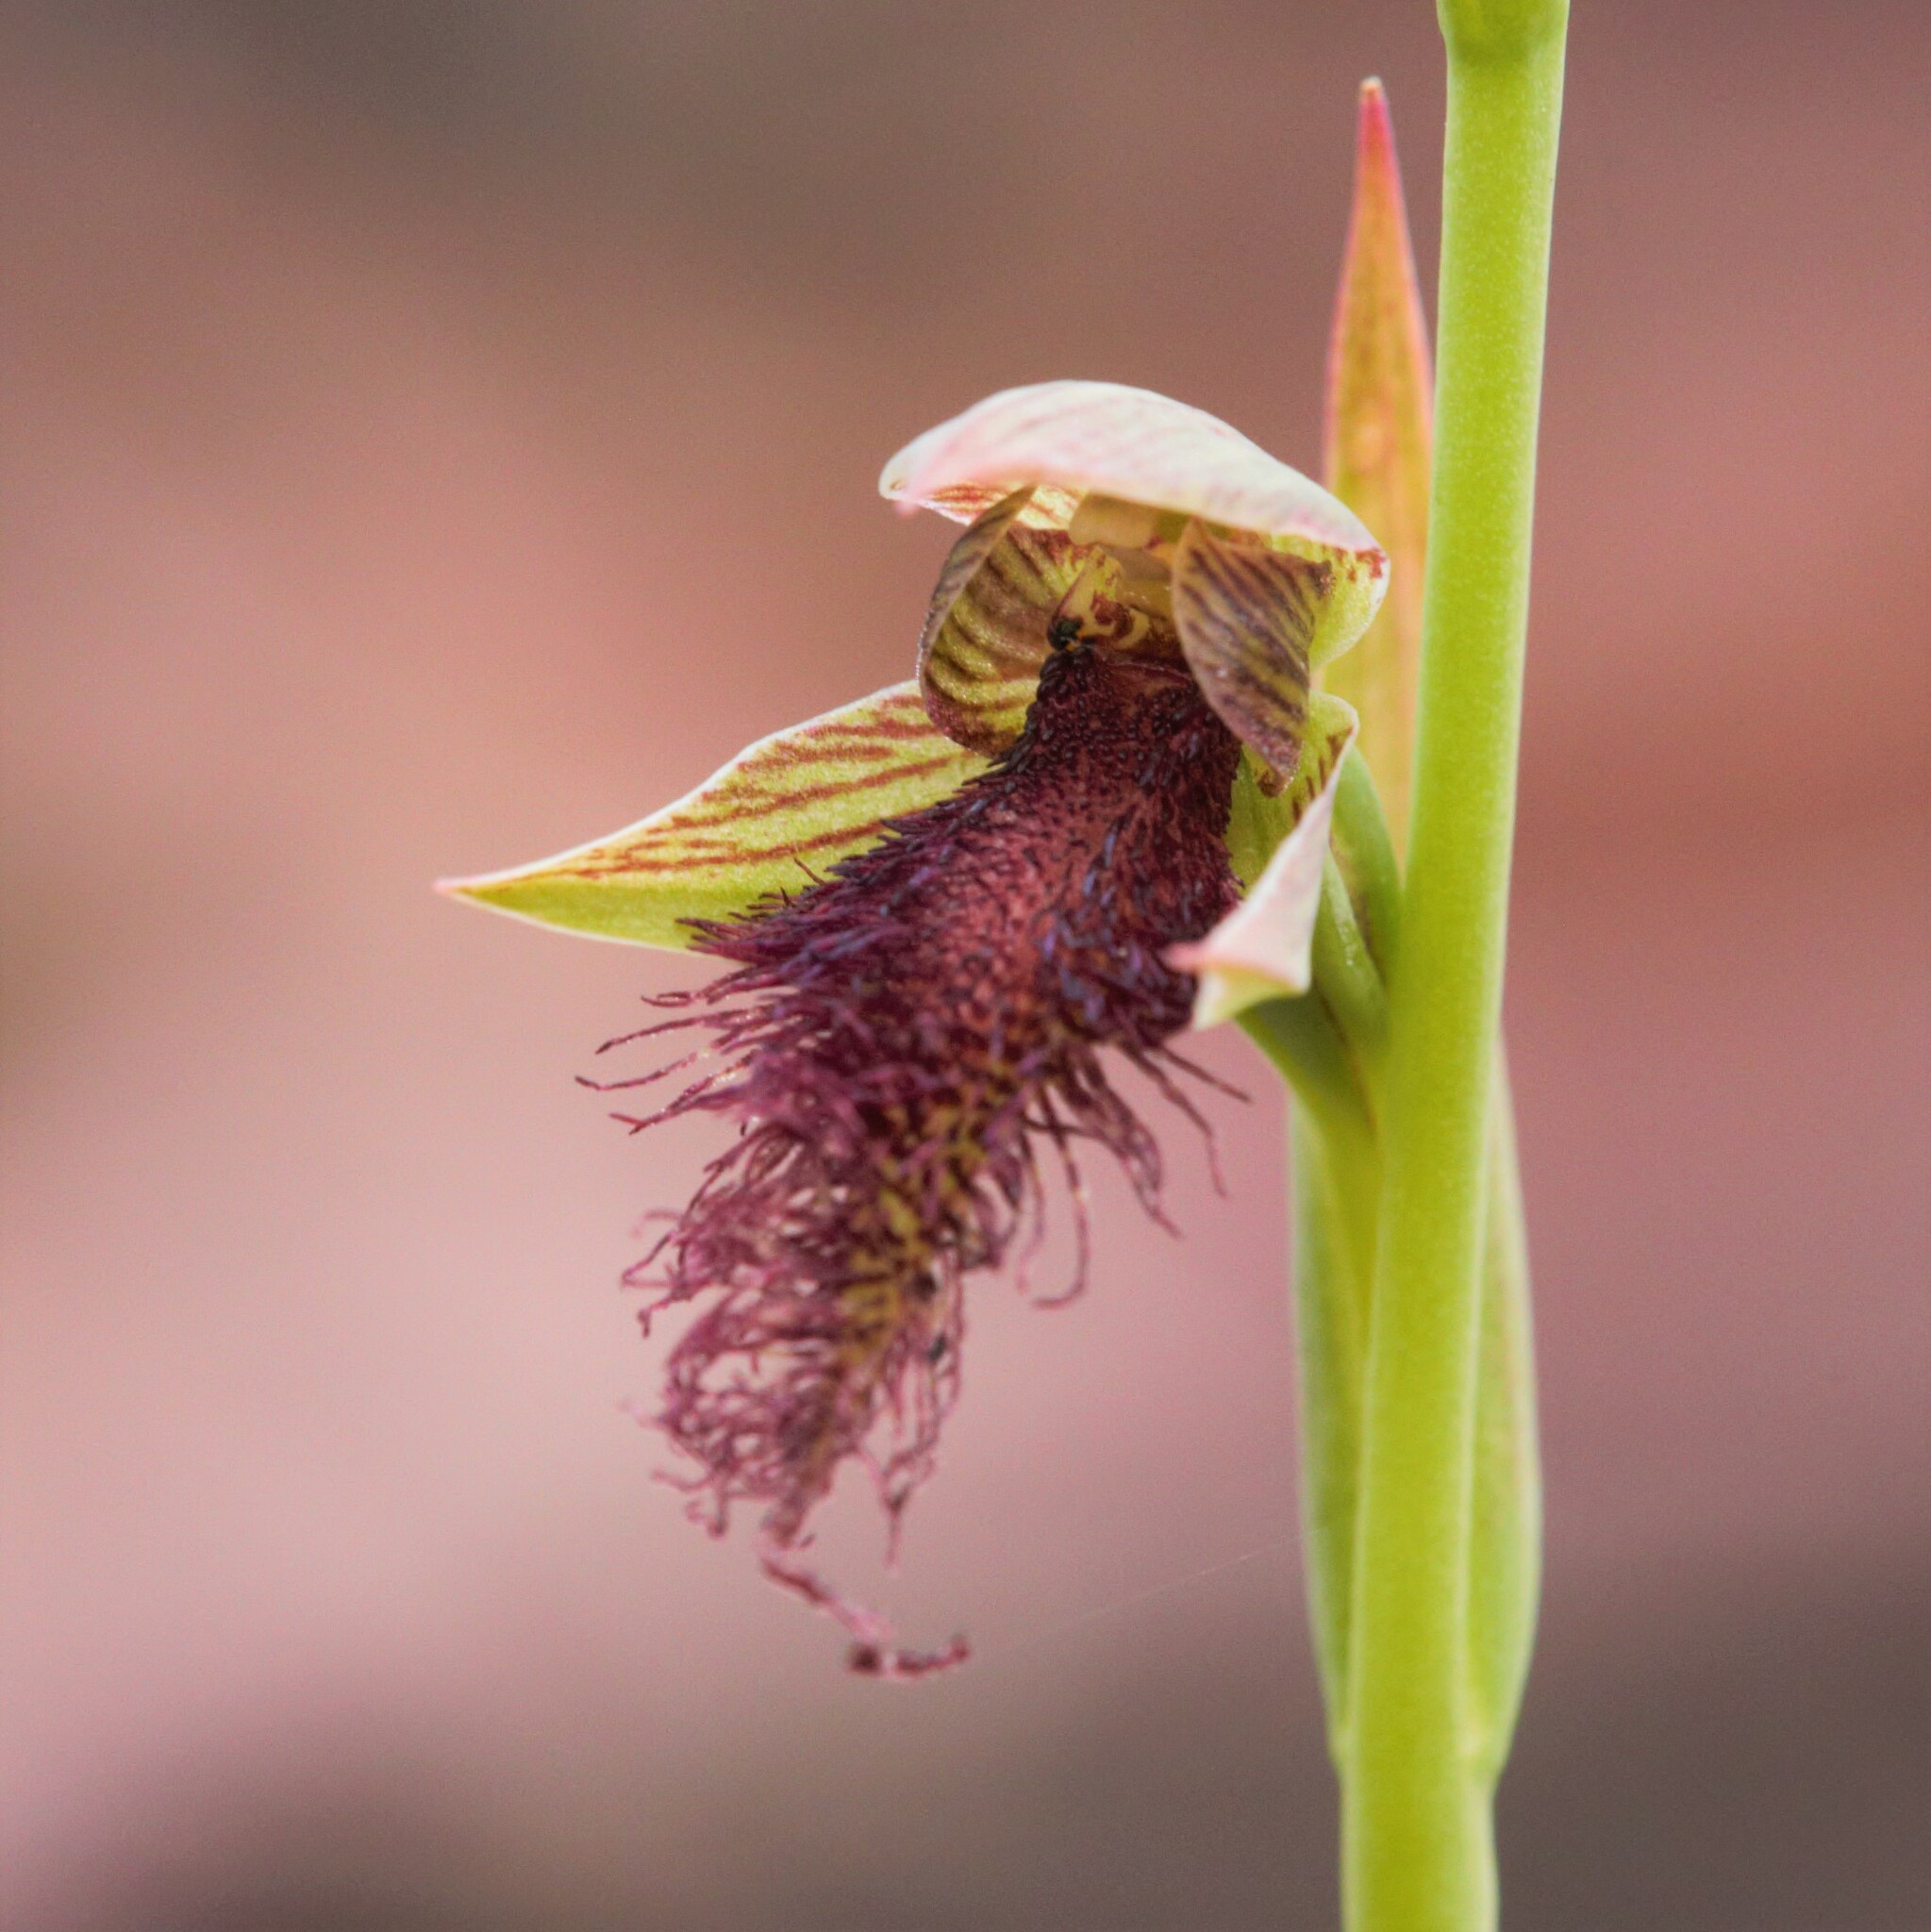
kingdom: Plantae
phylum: Tracheophyta
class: Liliopsida
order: Asparagales
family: Orchidaceae
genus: Calochilus
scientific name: Calochilus stramenicola
